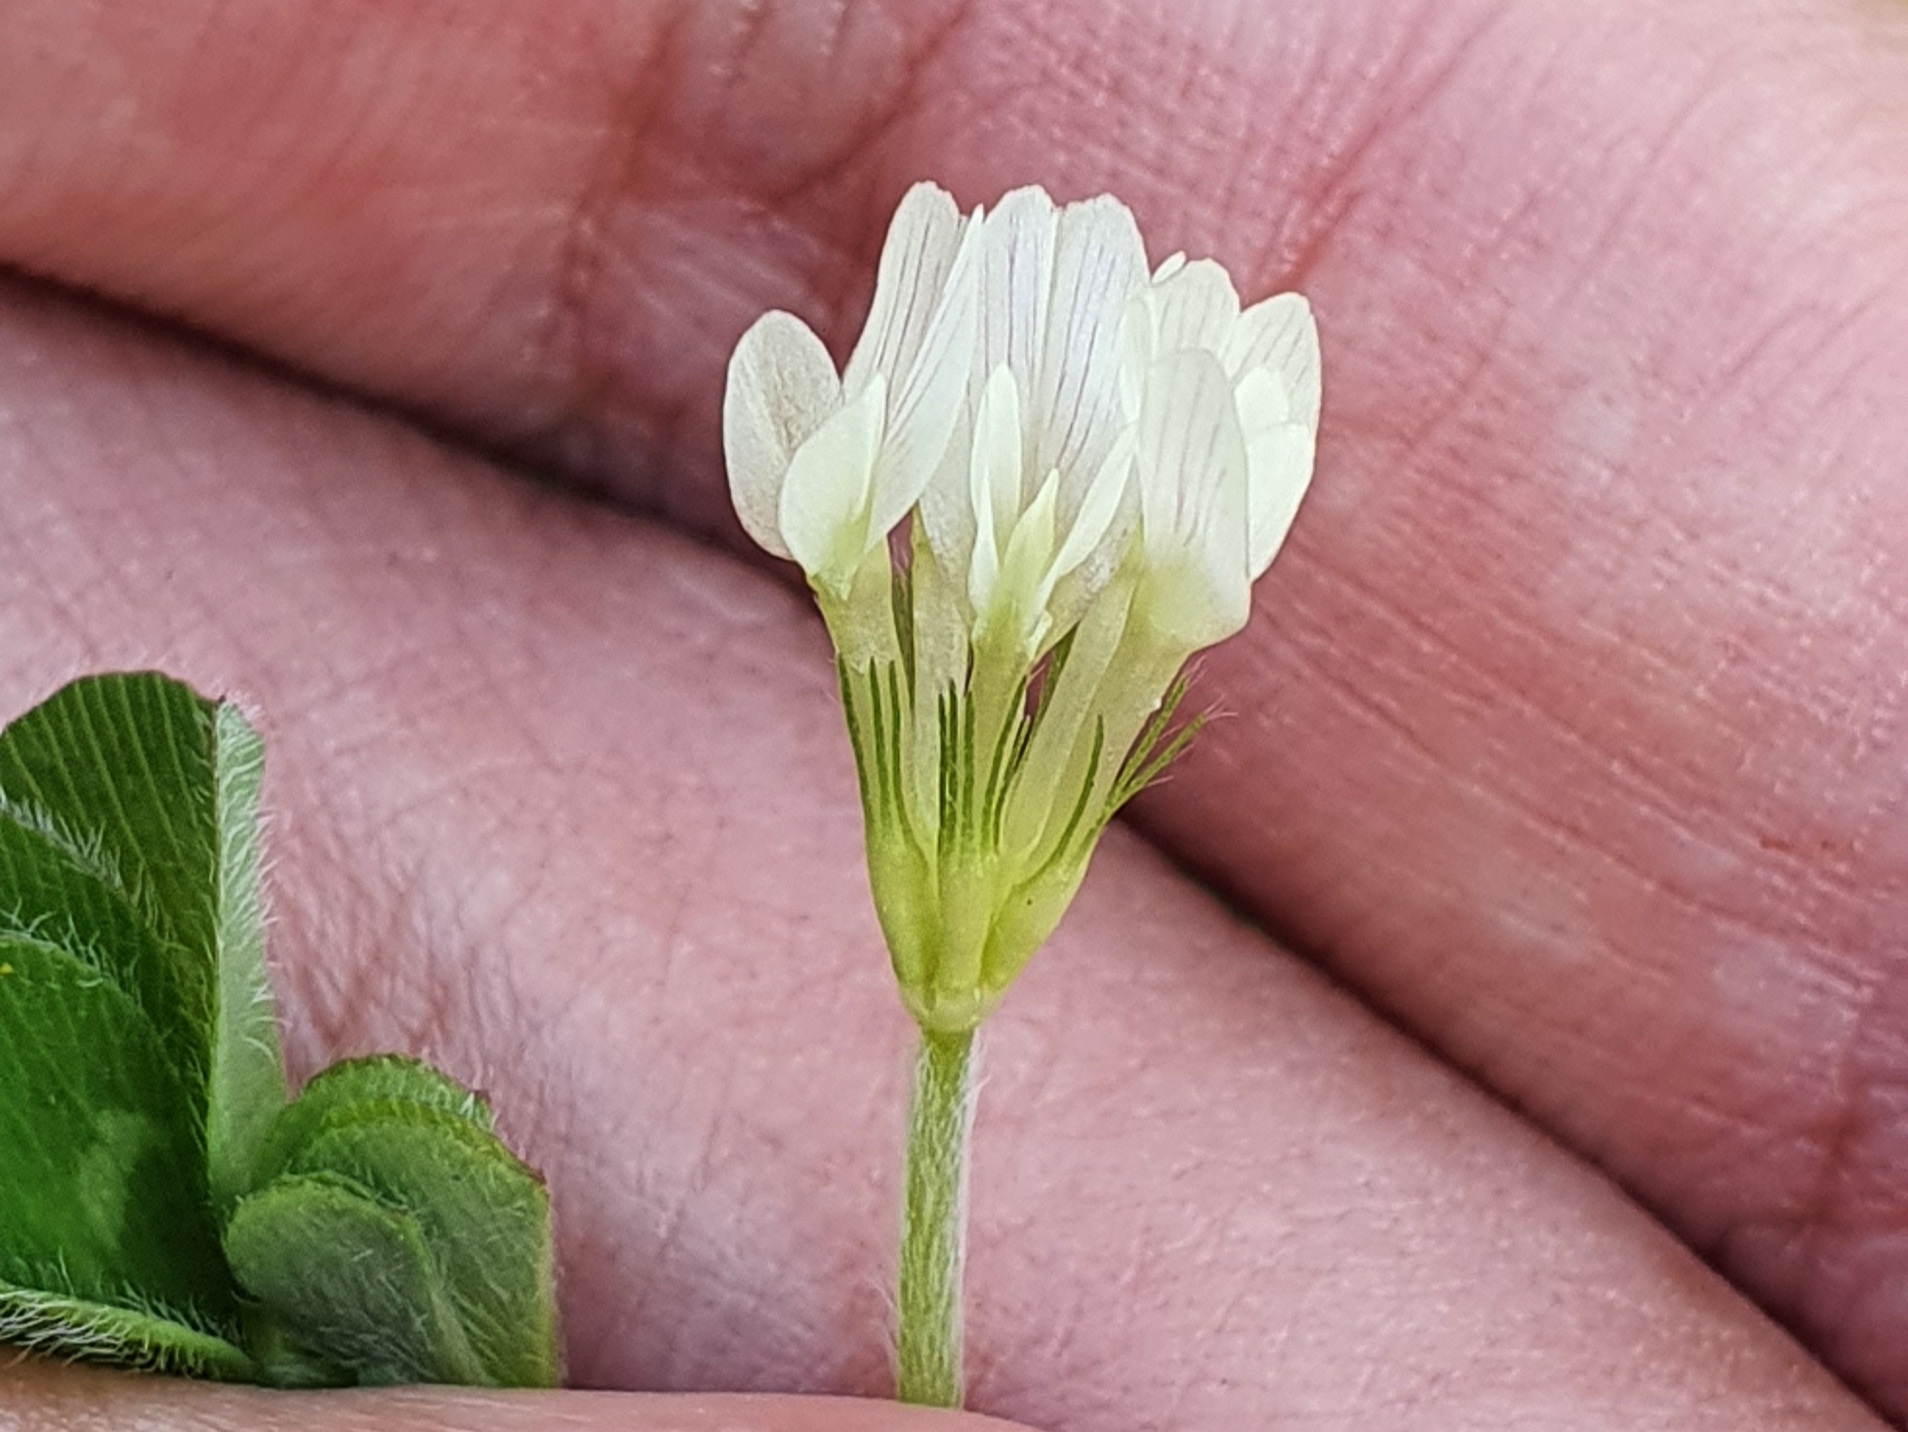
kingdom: Plantae
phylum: Tracheophyta
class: Magnoliopsida
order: Fabales
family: Fabaceae
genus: Trifolium
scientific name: Trifolium subterraneum
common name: Subterranean clover
